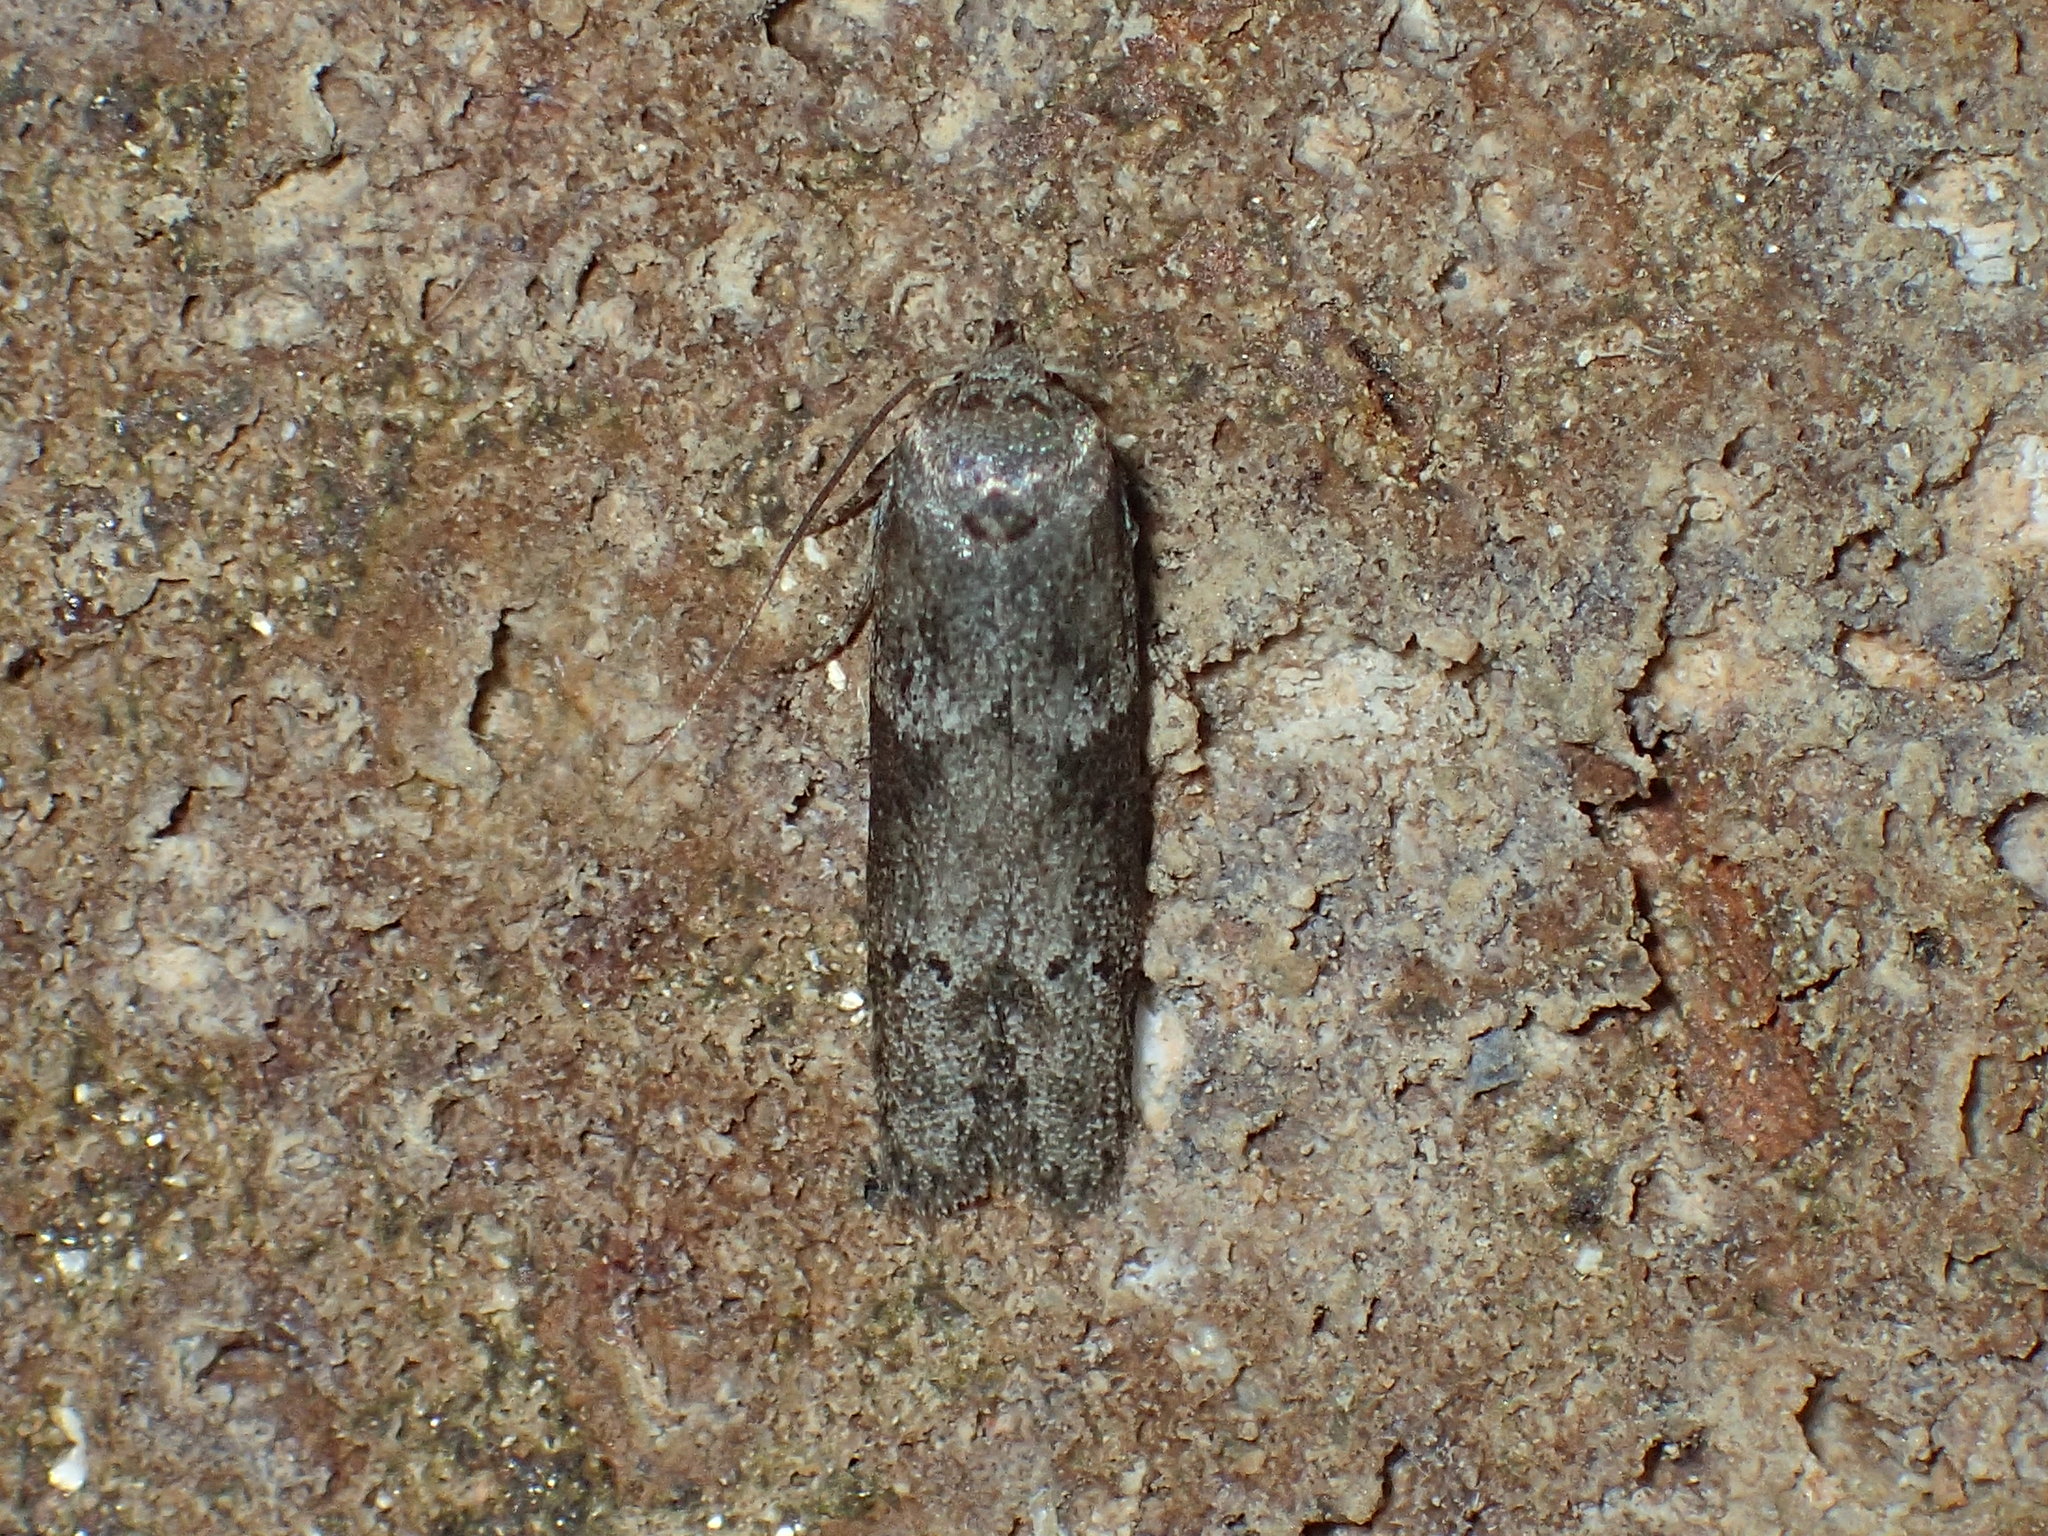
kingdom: Animalia
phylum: Arthropoda
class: Insecta
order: Lepidoptera
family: Blastobasidae
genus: Blastobasis
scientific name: Blastobasis glandulella
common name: Acorn moth
